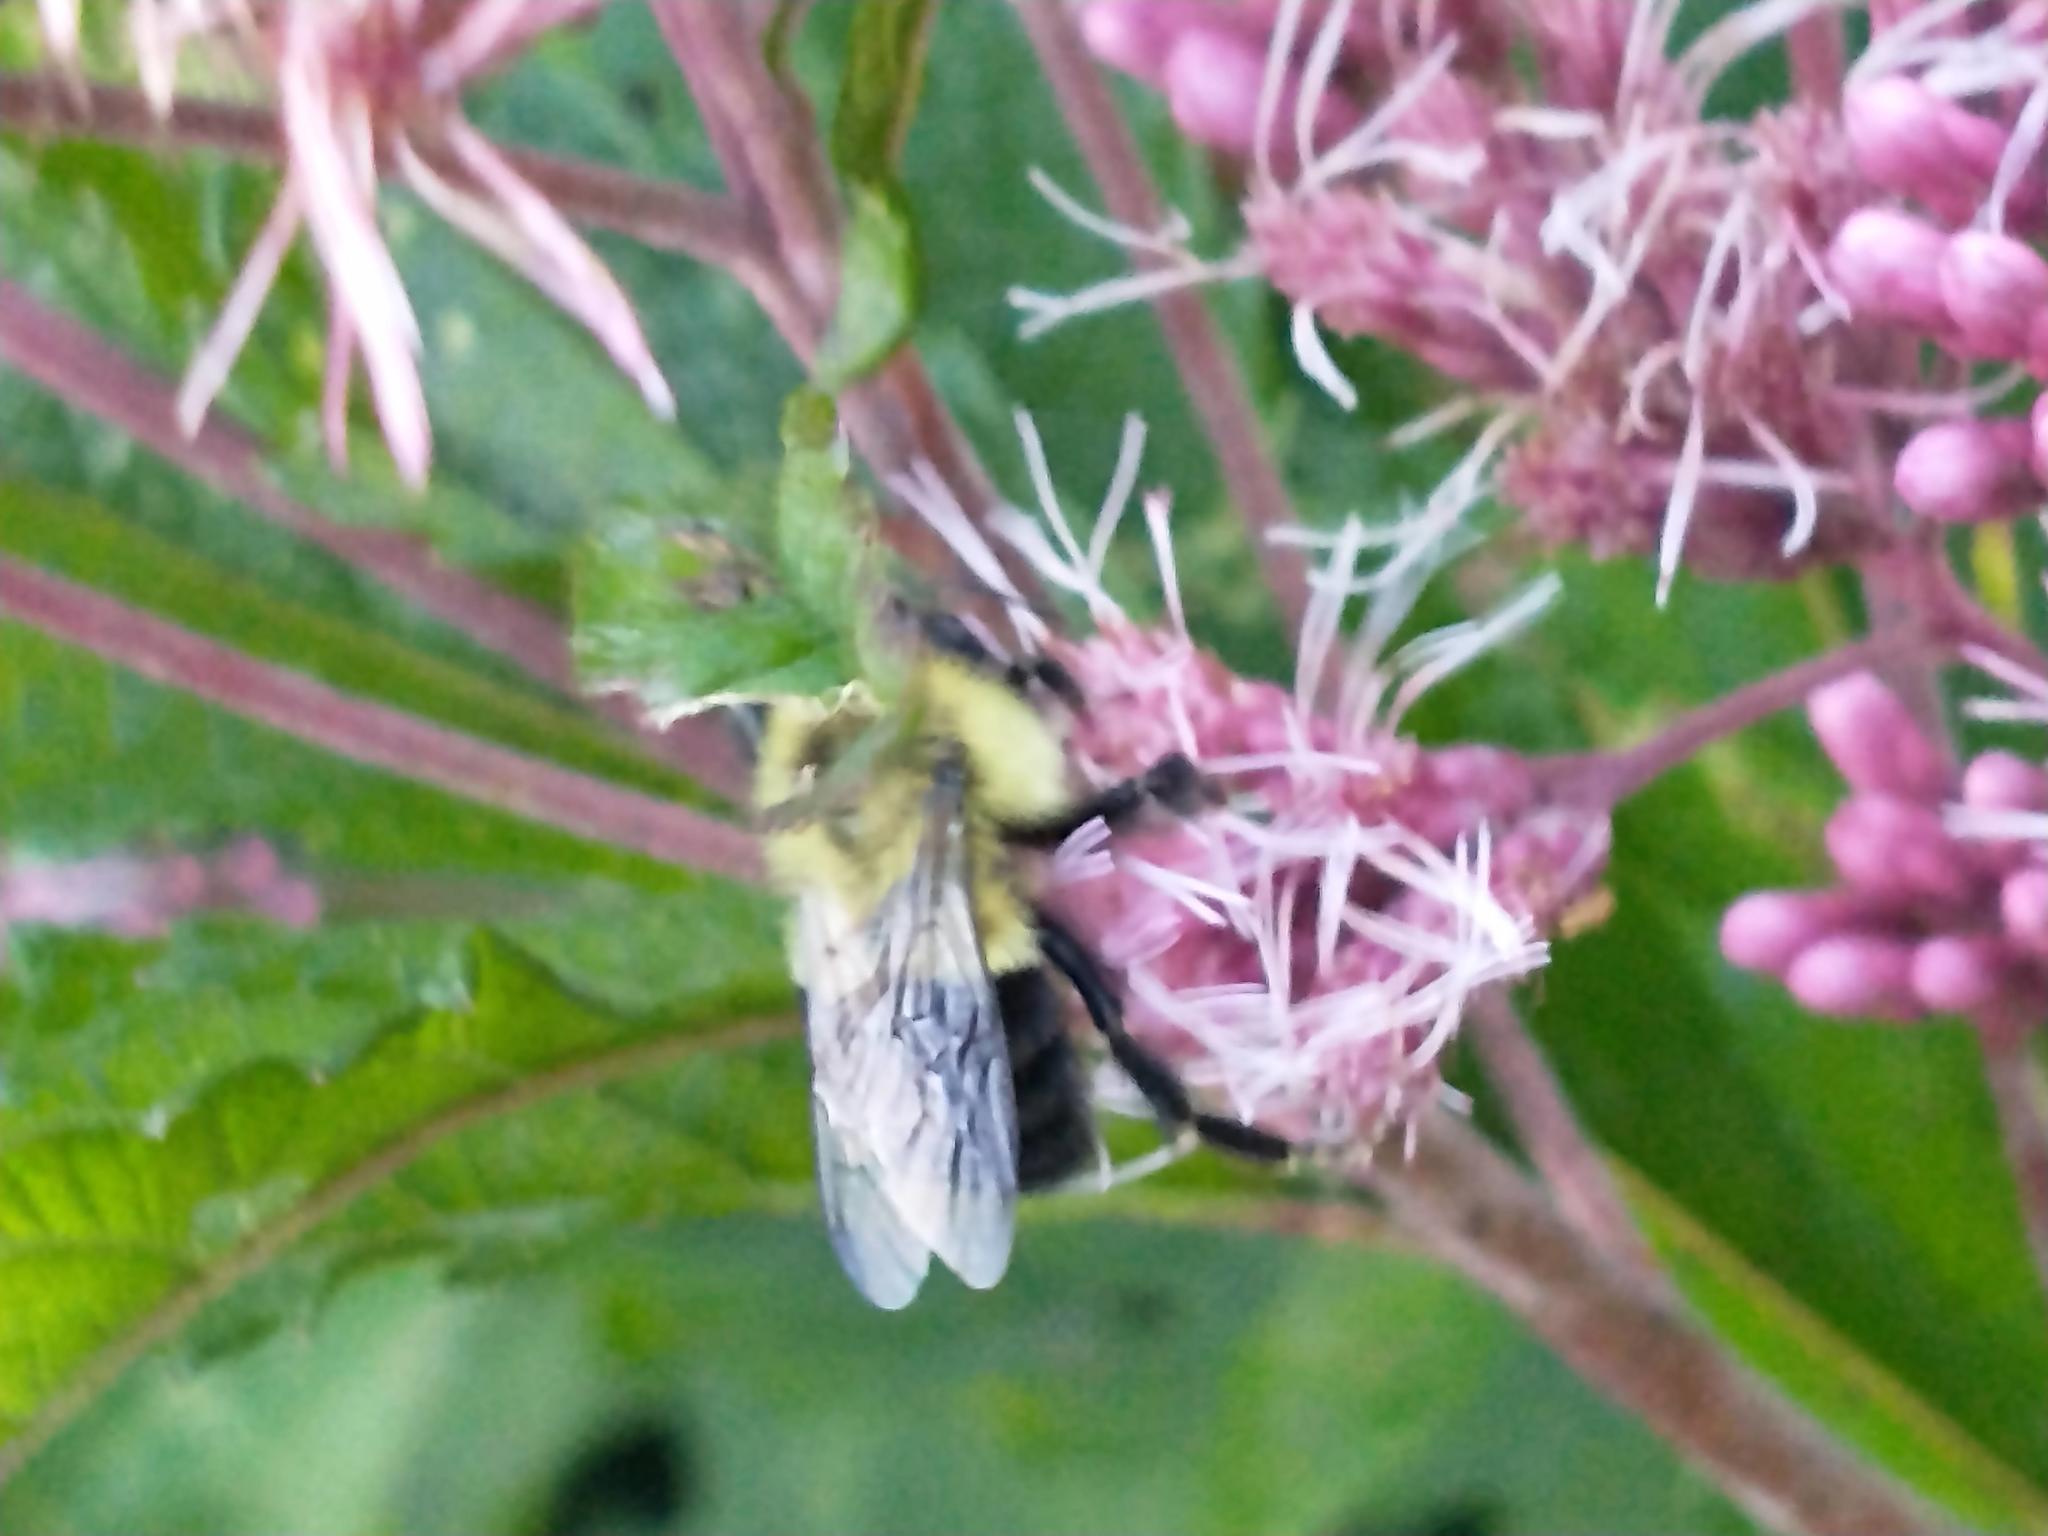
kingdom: Animalia
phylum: Arthropoda
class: Insecta
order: Hymenoptera
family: Apidae
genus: Bombus
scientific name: Bombus impatiens
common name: Common eastern bumble bee
